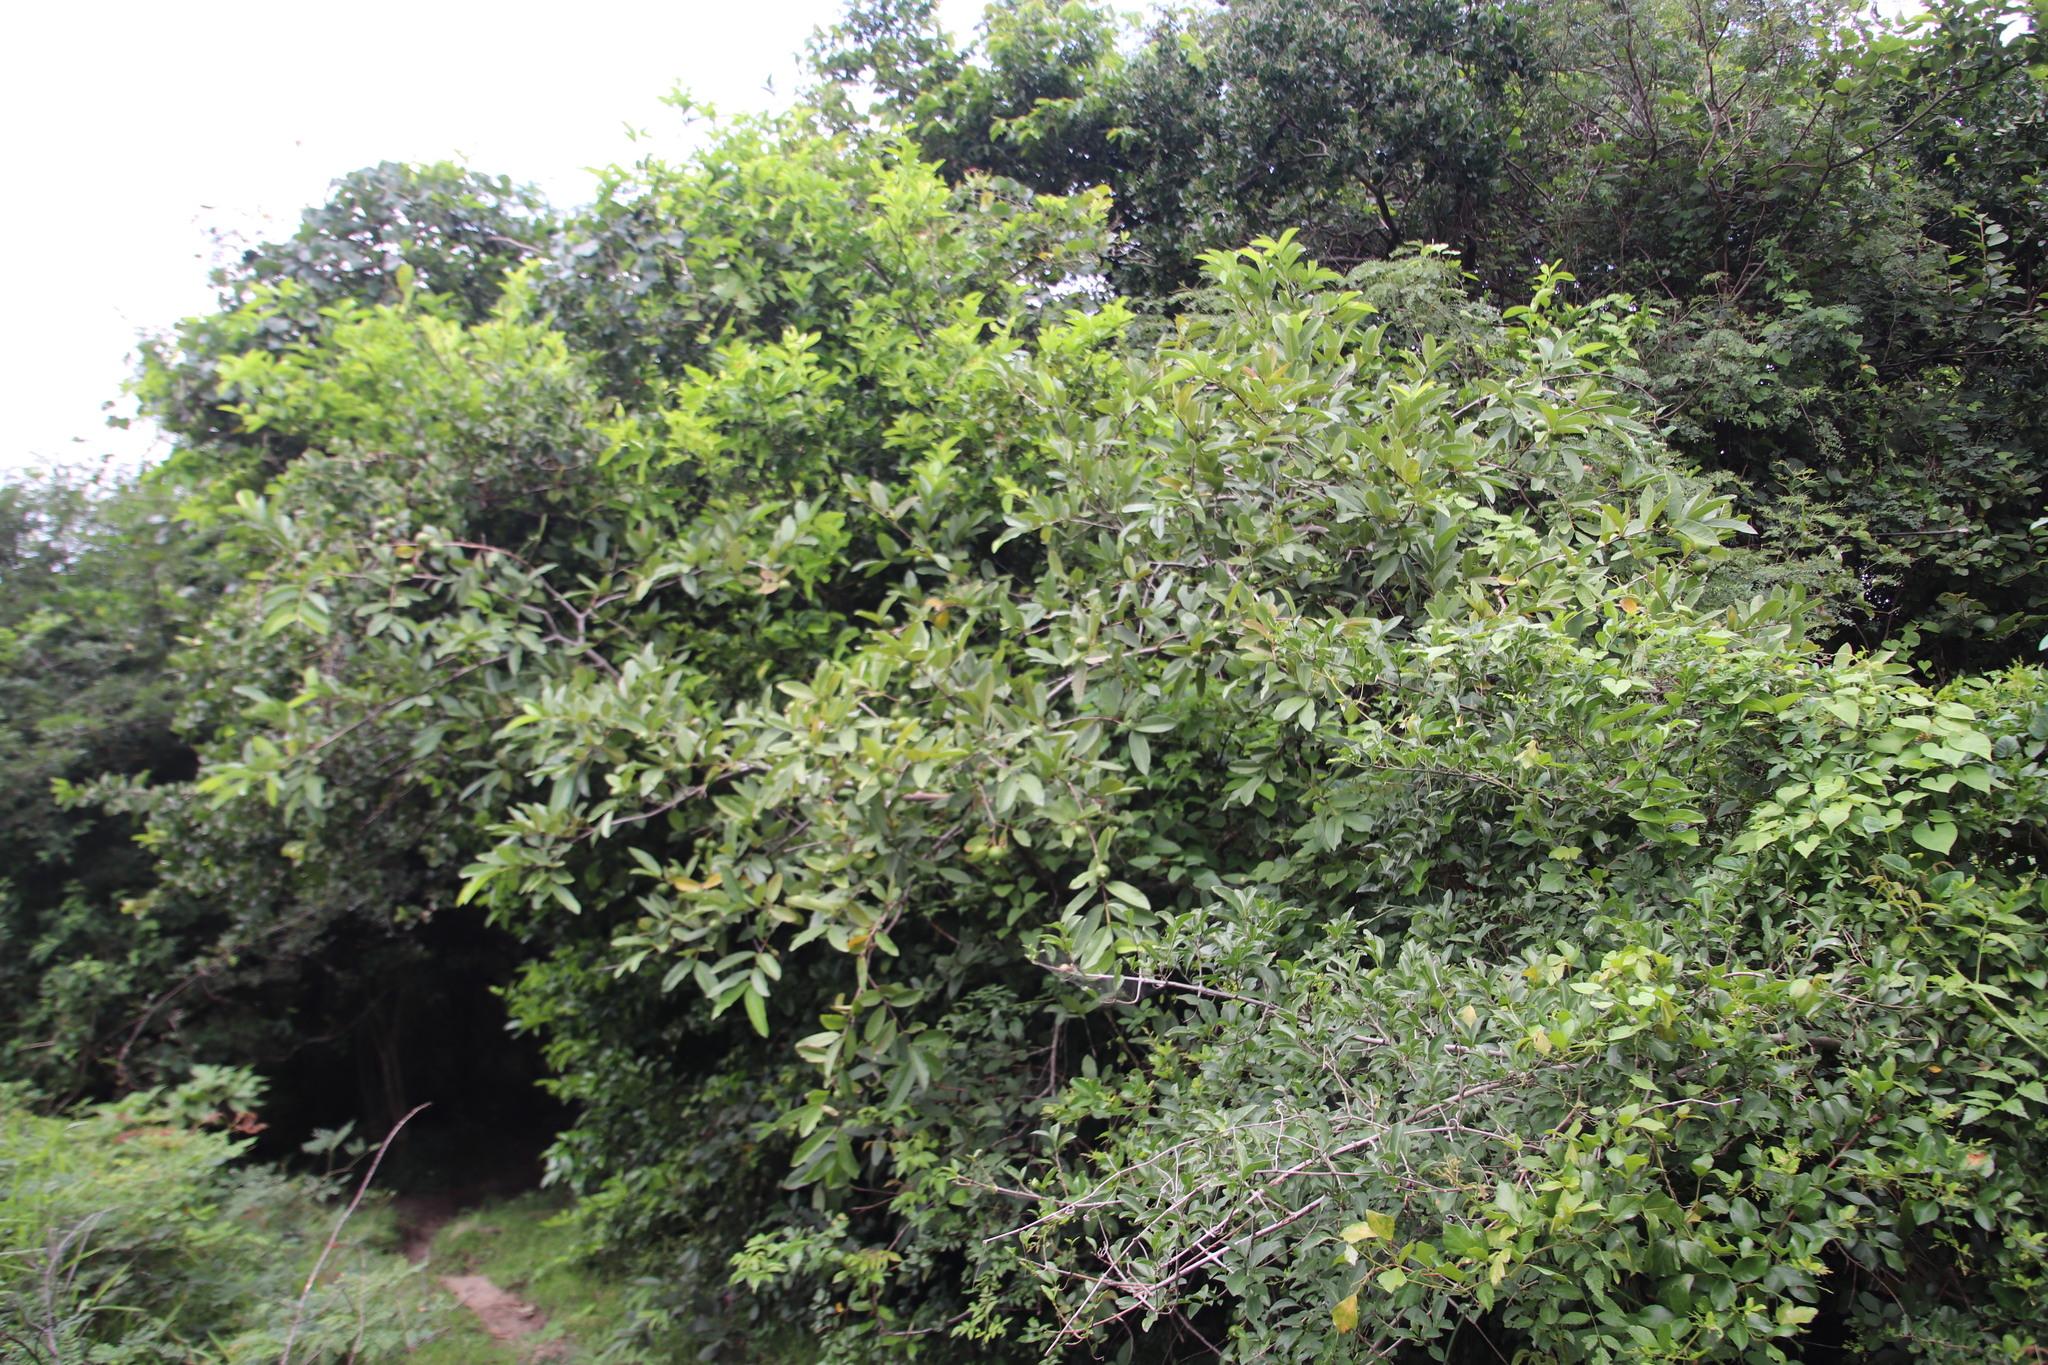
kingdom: Plantae
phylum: Tracheophyta
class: Magnoliopsida
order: Myrtales
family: Myrtaceae
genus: Psidium
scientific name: Psidium guajava
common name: Guava
